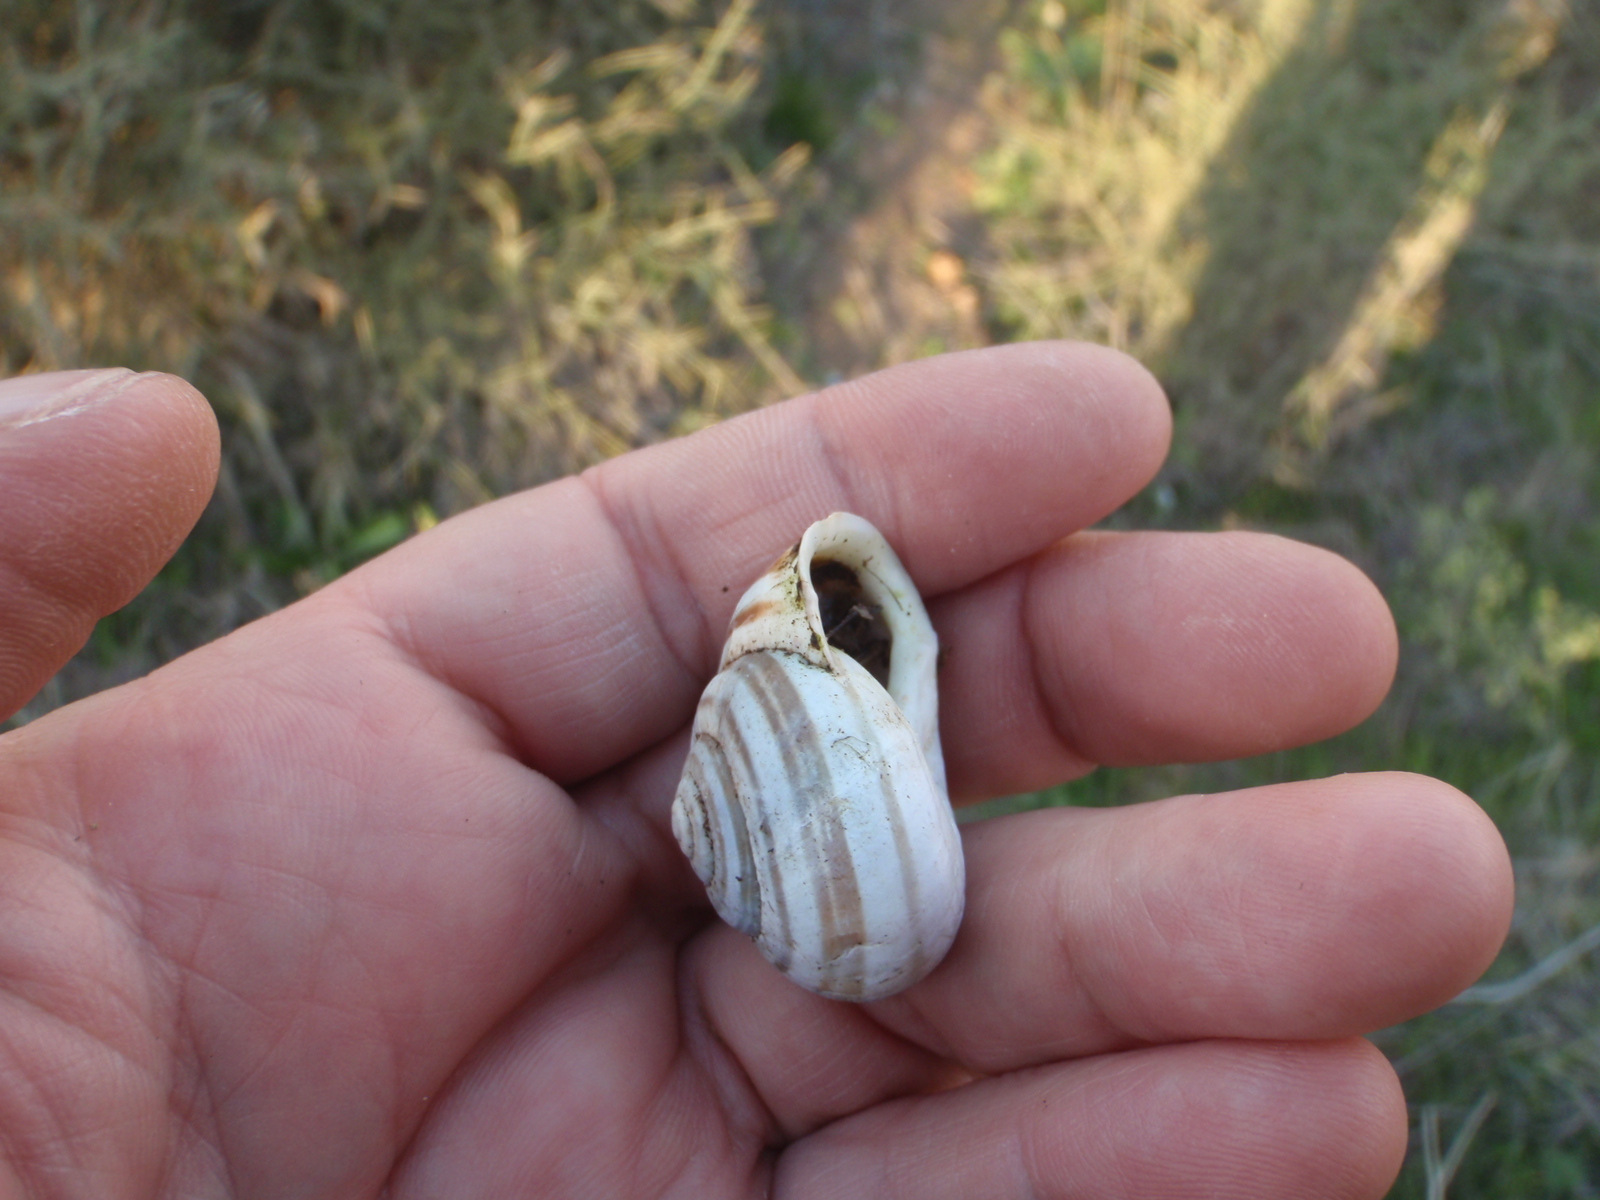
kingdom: Animalia
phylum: Mollusca
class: Gastropoda
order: Stylommatophora
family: Helicidae
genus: Eobania
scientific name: Eobania constantina
